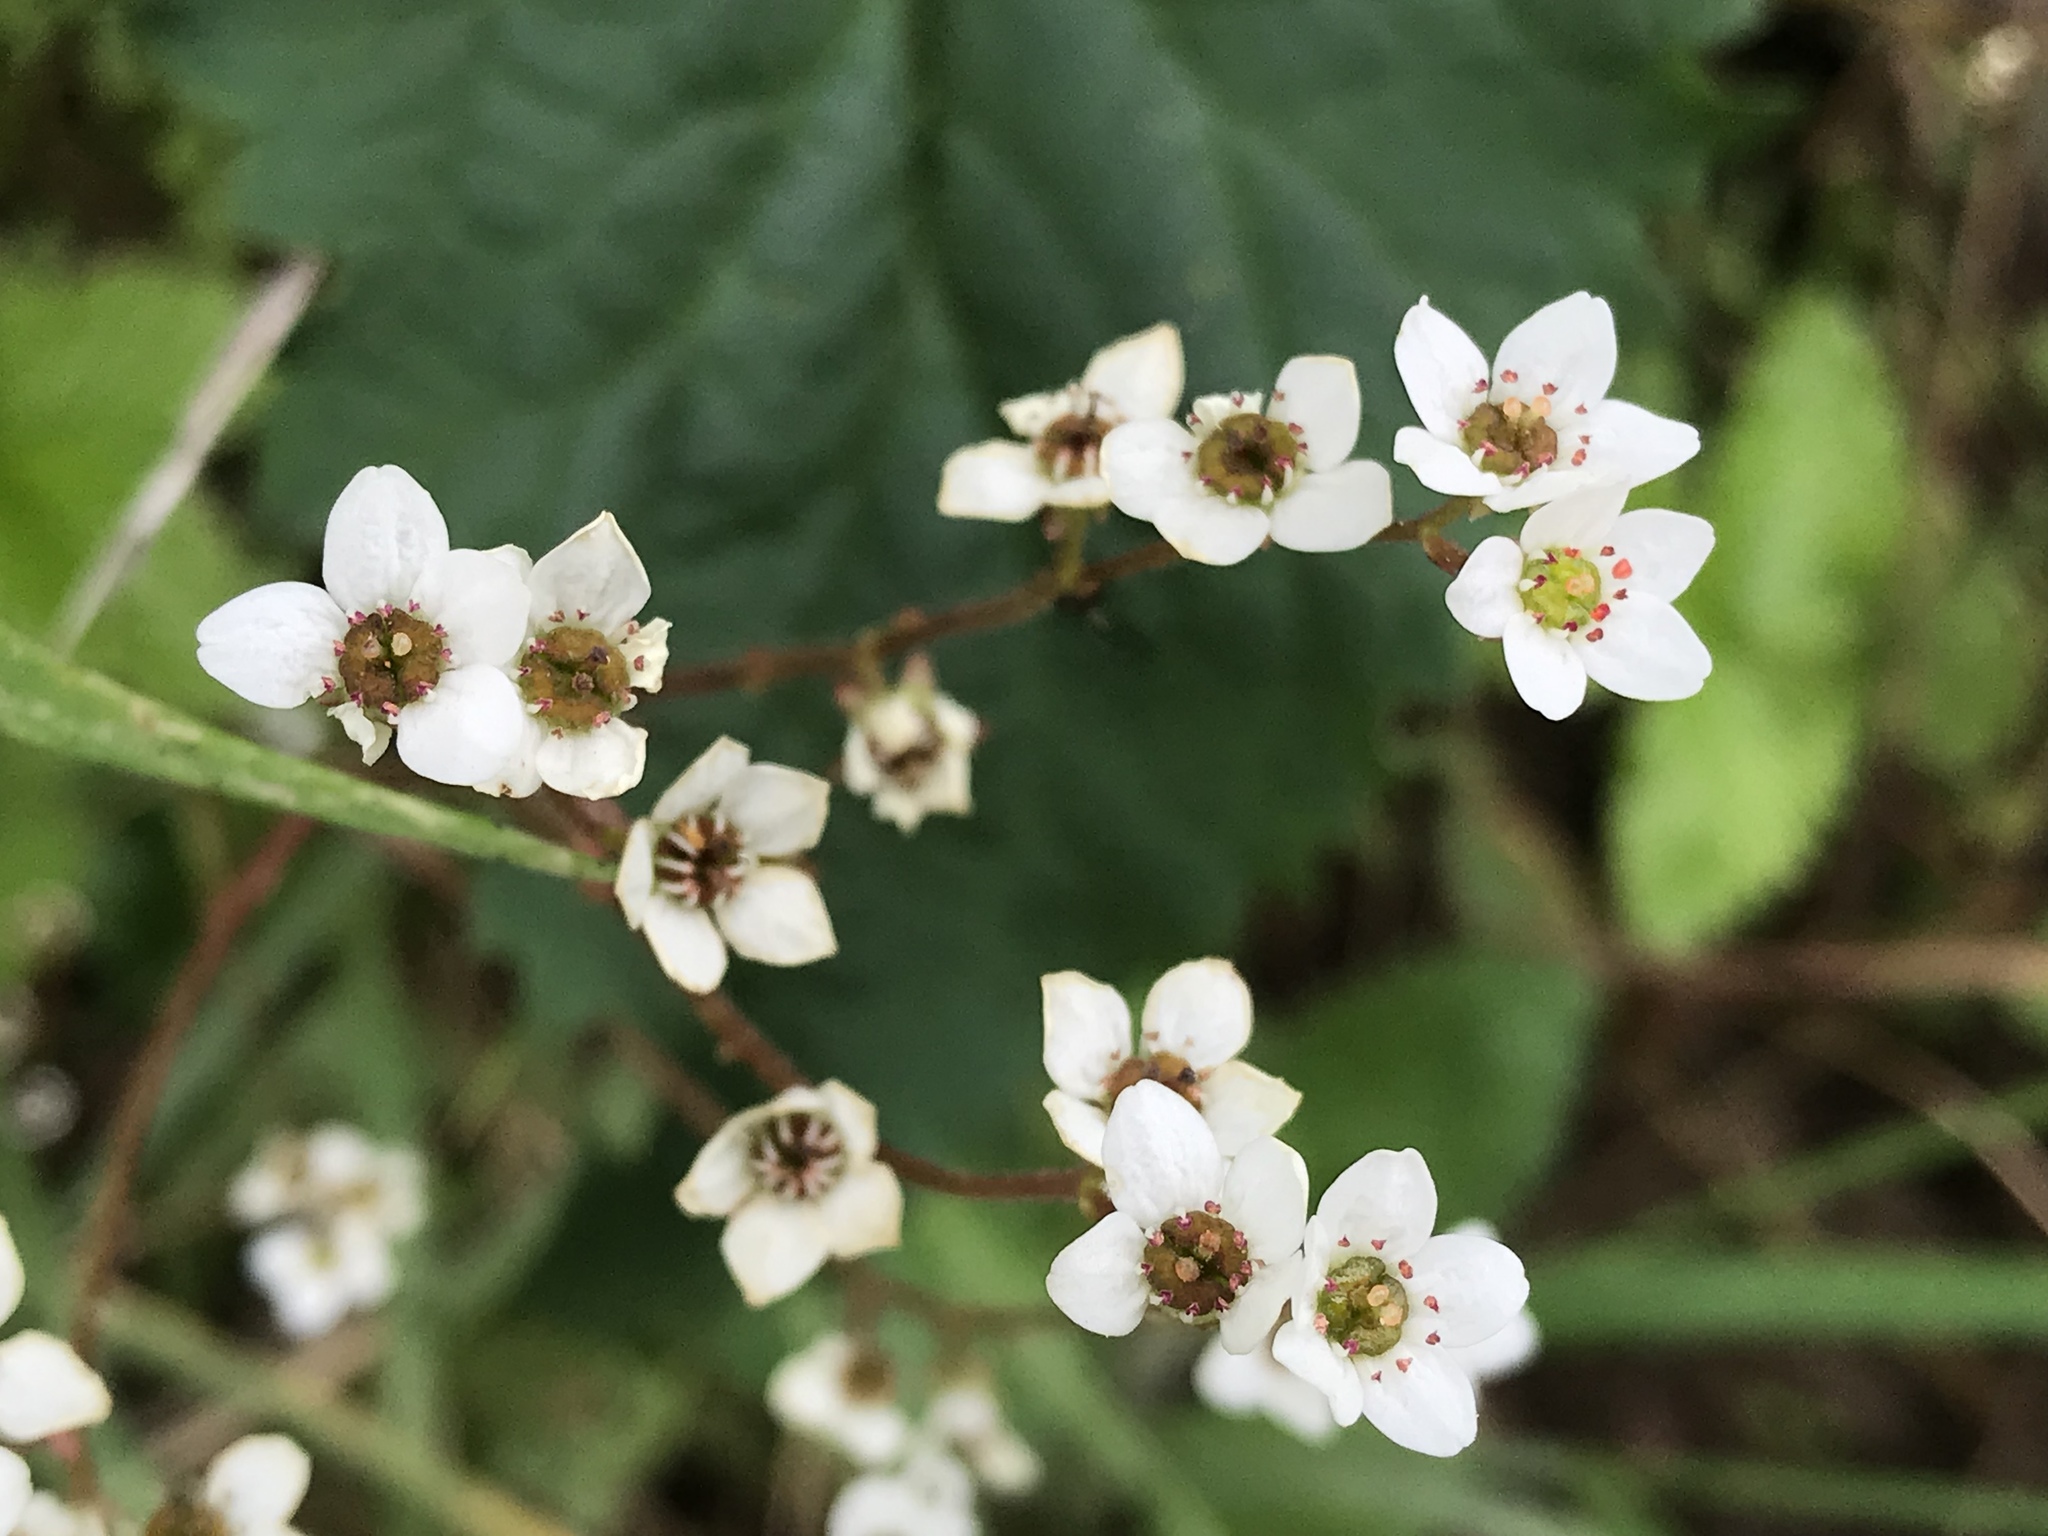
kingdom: Plantae
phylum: Tracheophyta
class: Magnoliopsida
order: Saxifragales
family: Saxifragaceae
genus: Micranthes
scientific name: Micranthes californica
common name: California saxifrage
